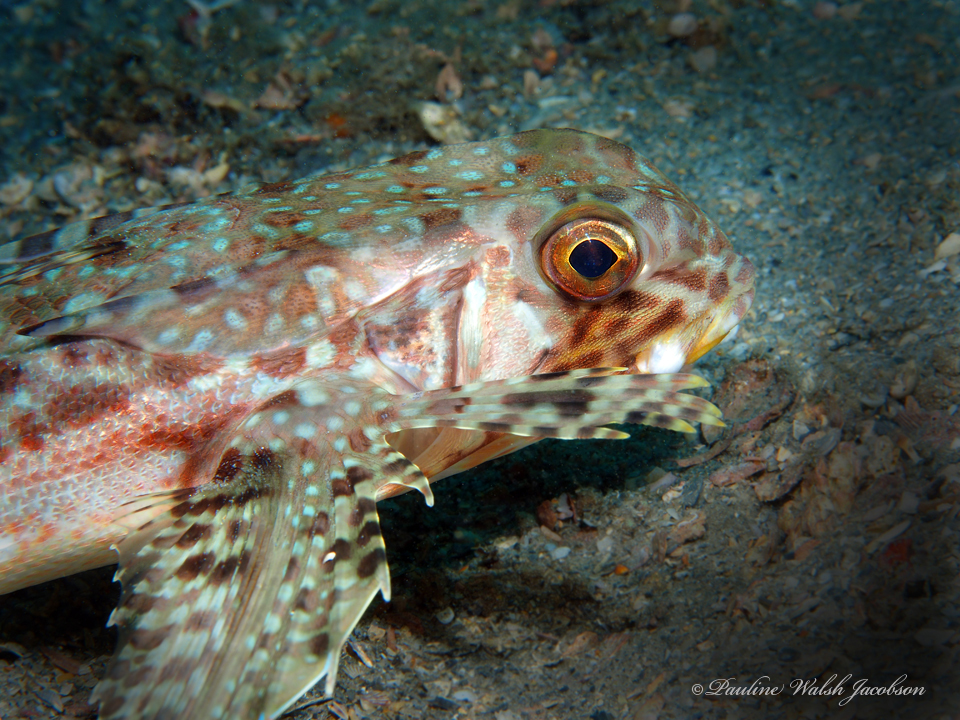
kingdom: Animalia
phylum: Chordata
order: Scorpaeniformes
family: Dactylopteridae
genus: Dactylopterus
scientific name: Dactylopterus volitans
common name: Flying gurnard
